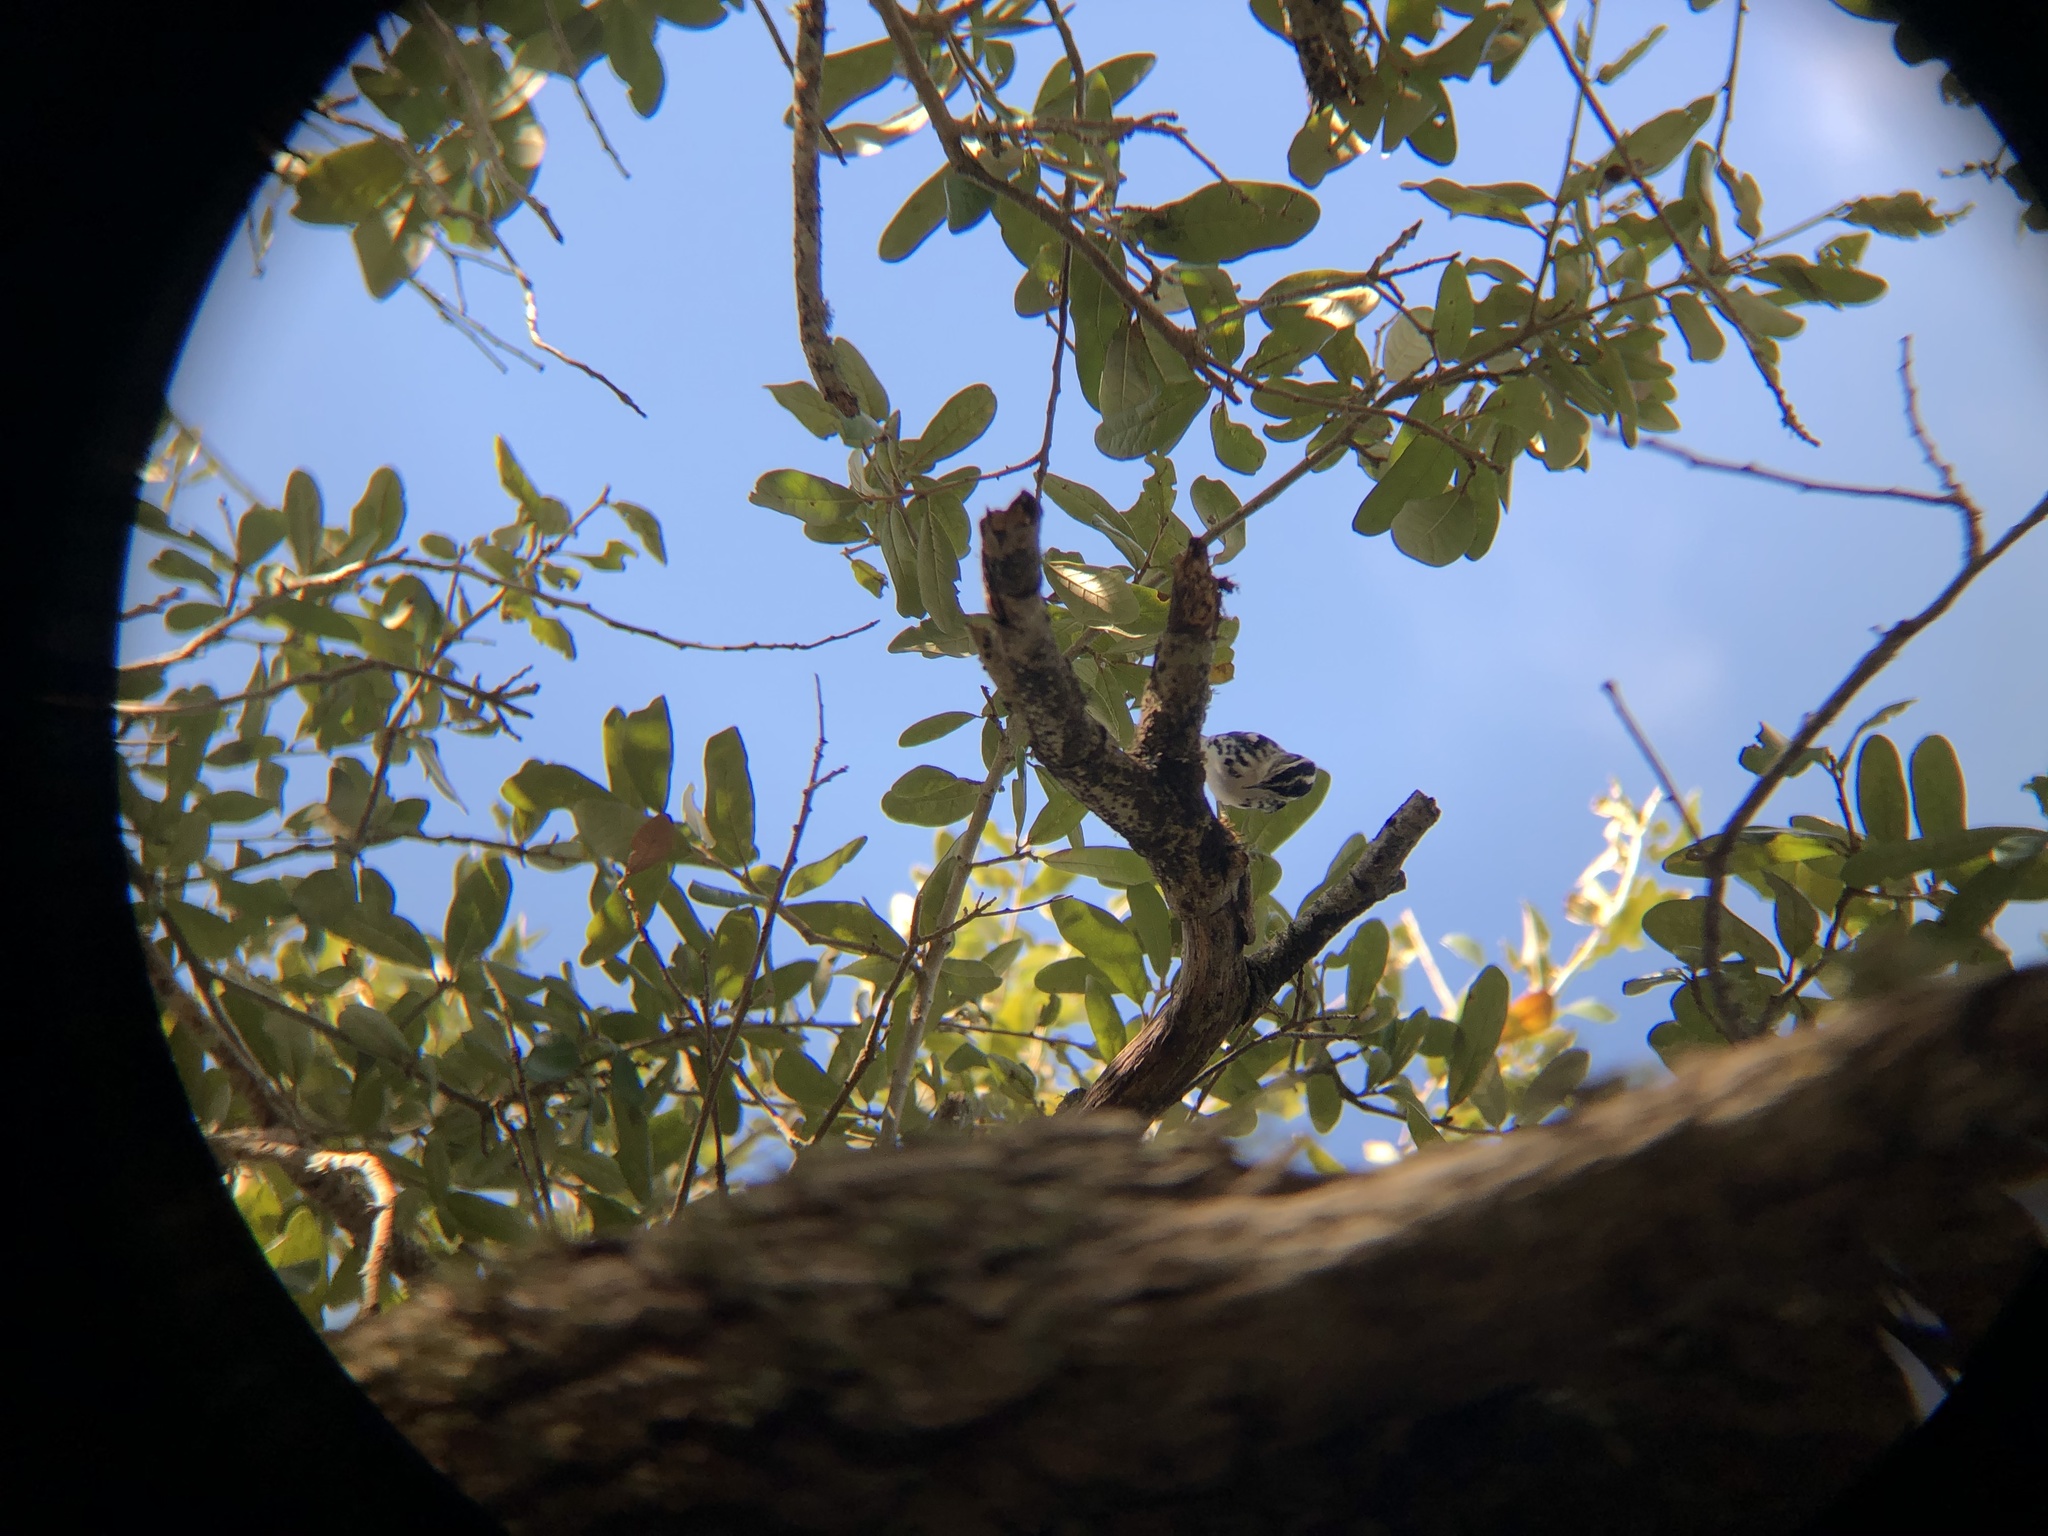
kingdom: Animalia
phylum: Chordata
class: Aves
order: Passeriformes
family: Parulidae
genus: Mniotilta
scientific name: Mniotilta varia
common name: Black-and-white warbler
